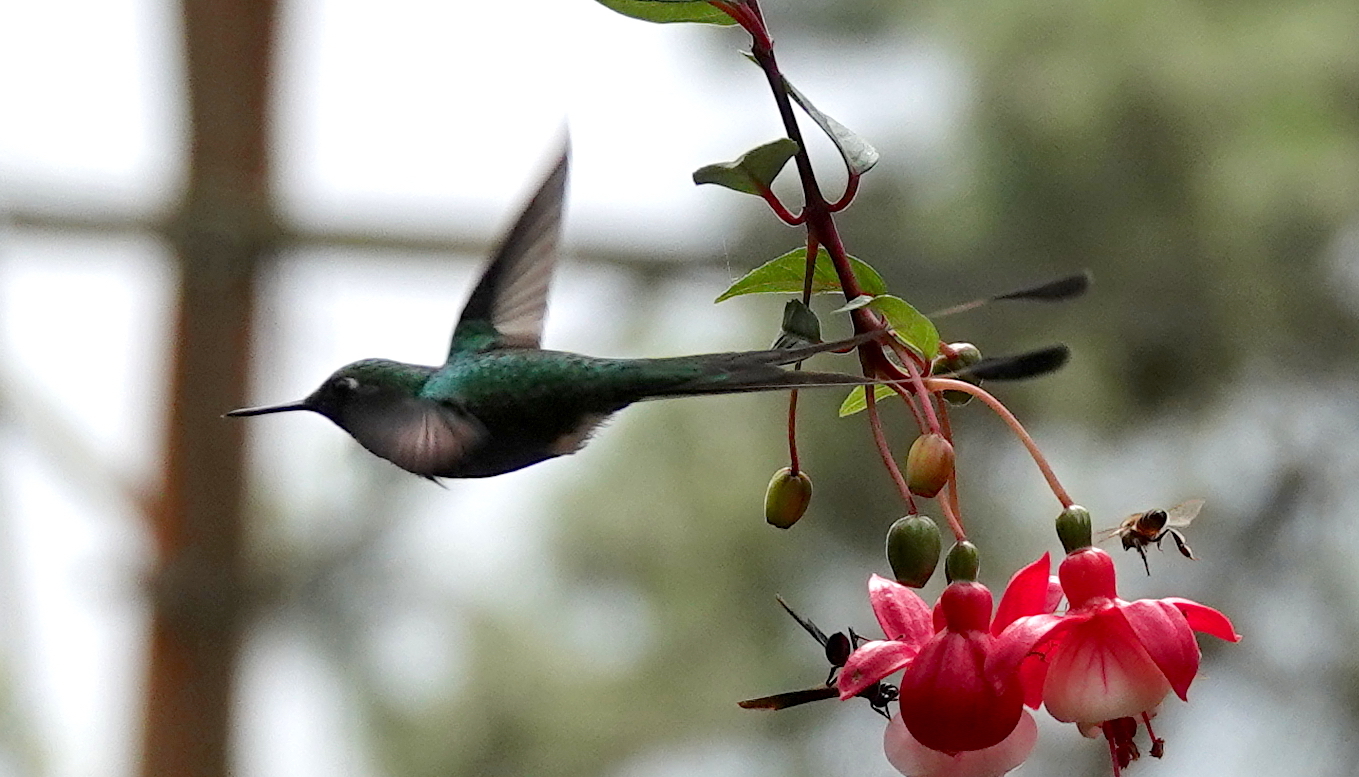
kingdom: Animalia
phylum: Chordata
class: Aves
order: Apodiformes
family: Trochilidae
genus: Ocreatus
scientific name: Ocreatus underwoodii
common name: Booted racket-tail
